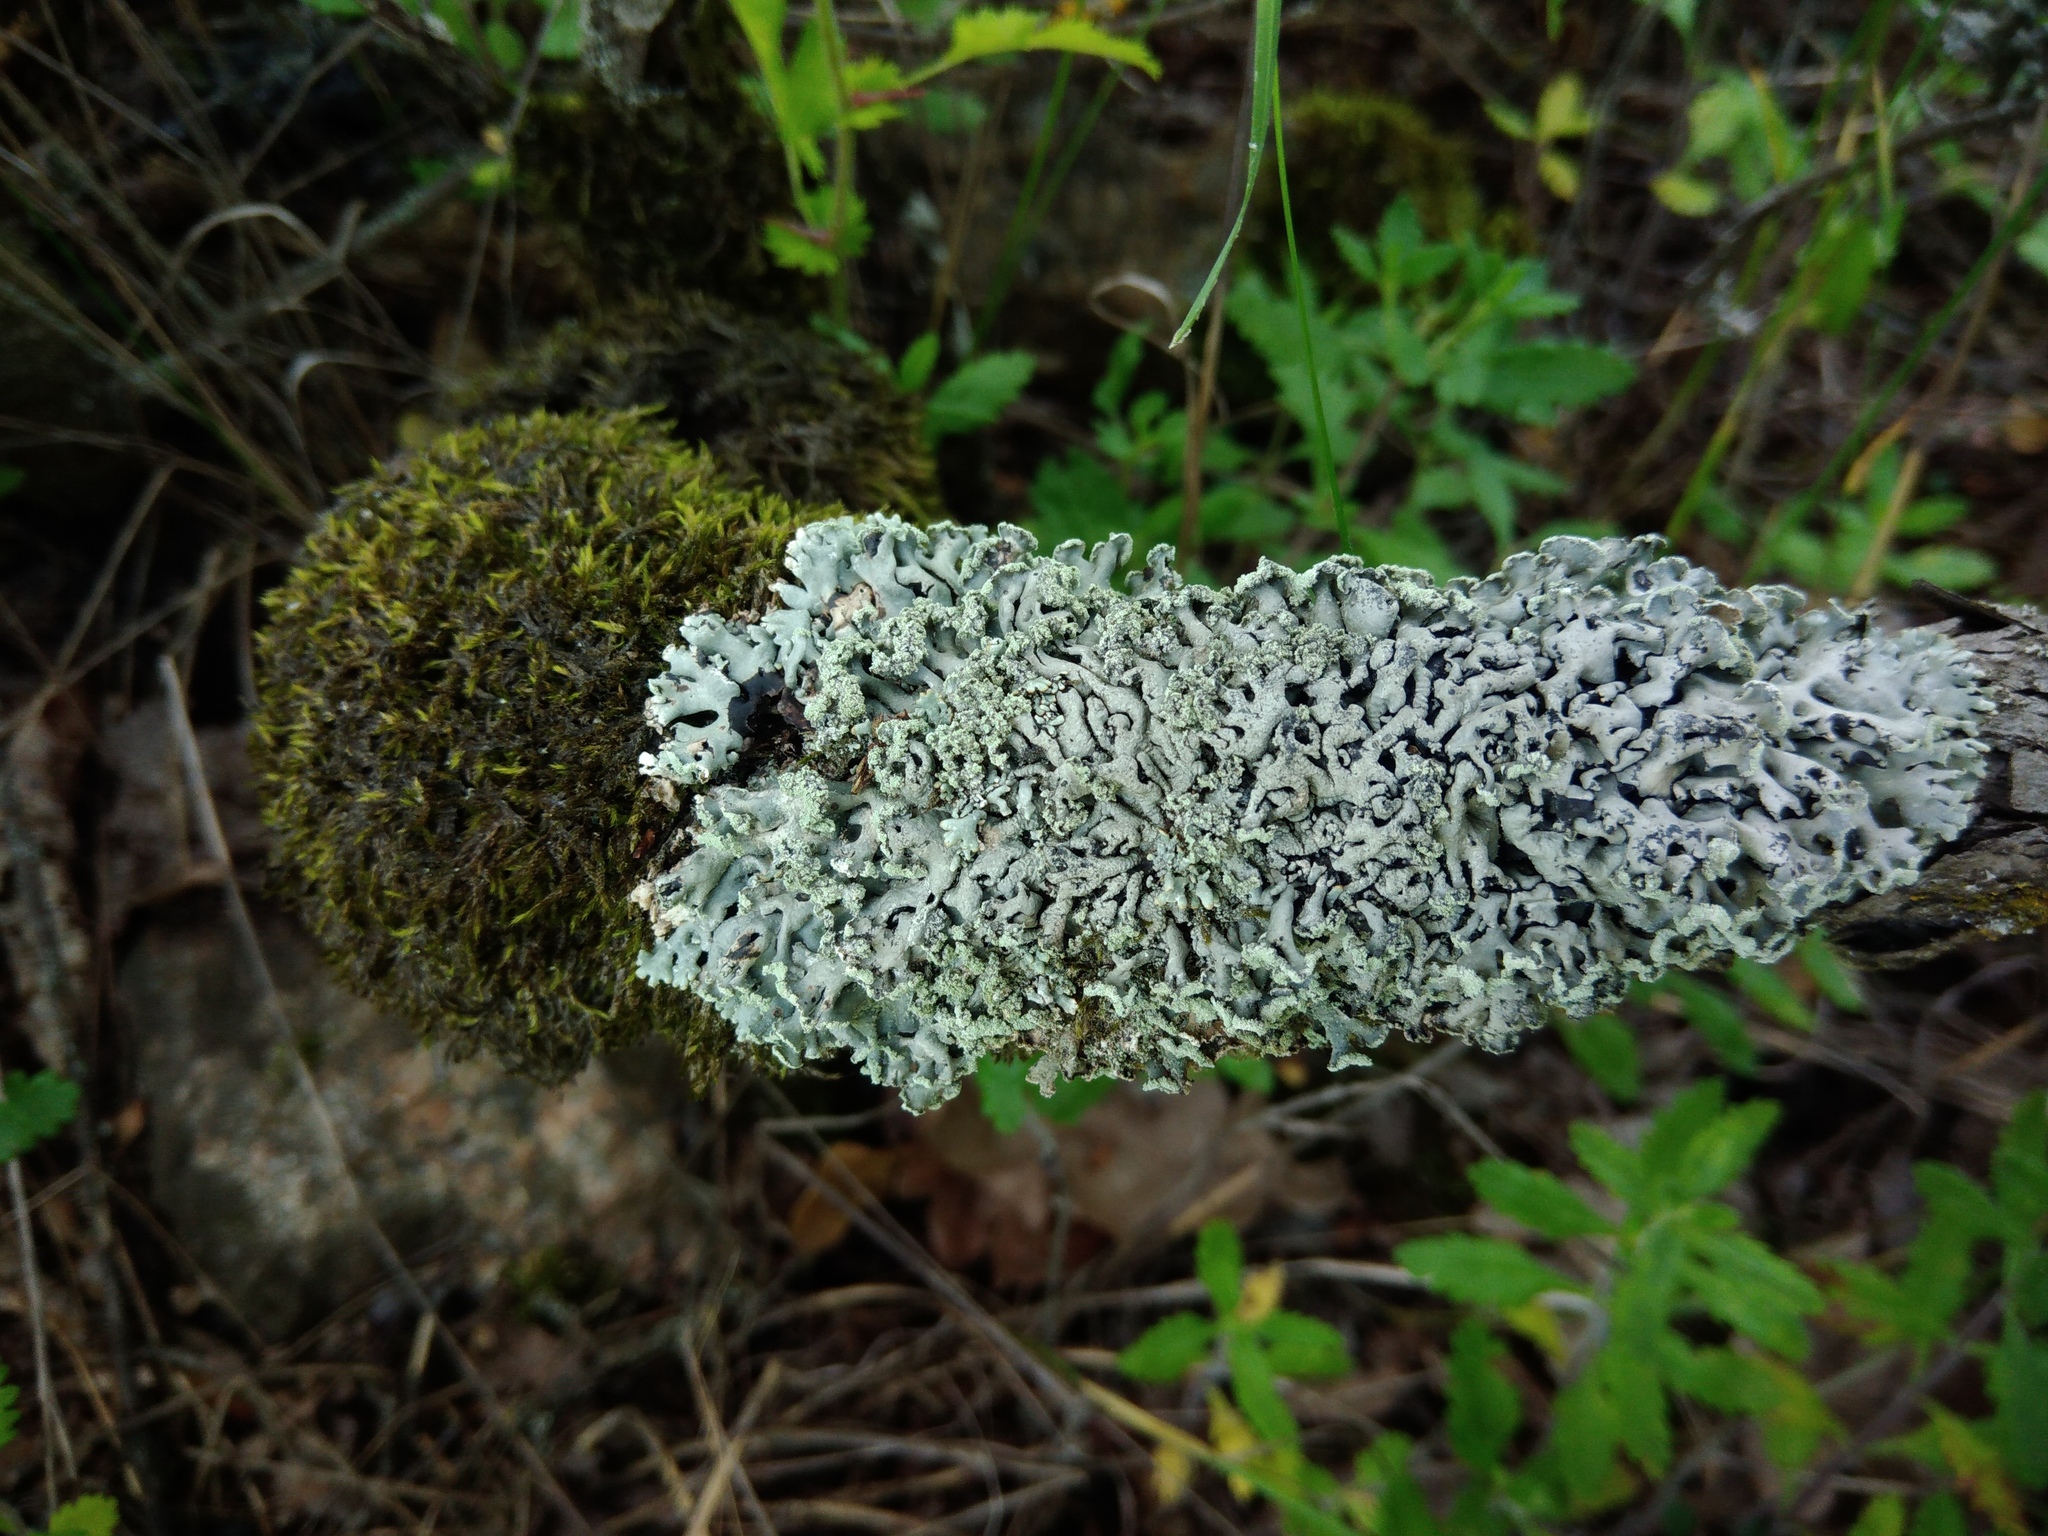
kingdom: Fungi
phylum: Ascomycota
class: Lecanoromycetes
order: Lecanorales
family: Parmeliaceae
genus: Hypogymnia
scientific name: Hypogymnia physodes
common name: Dark crottle
